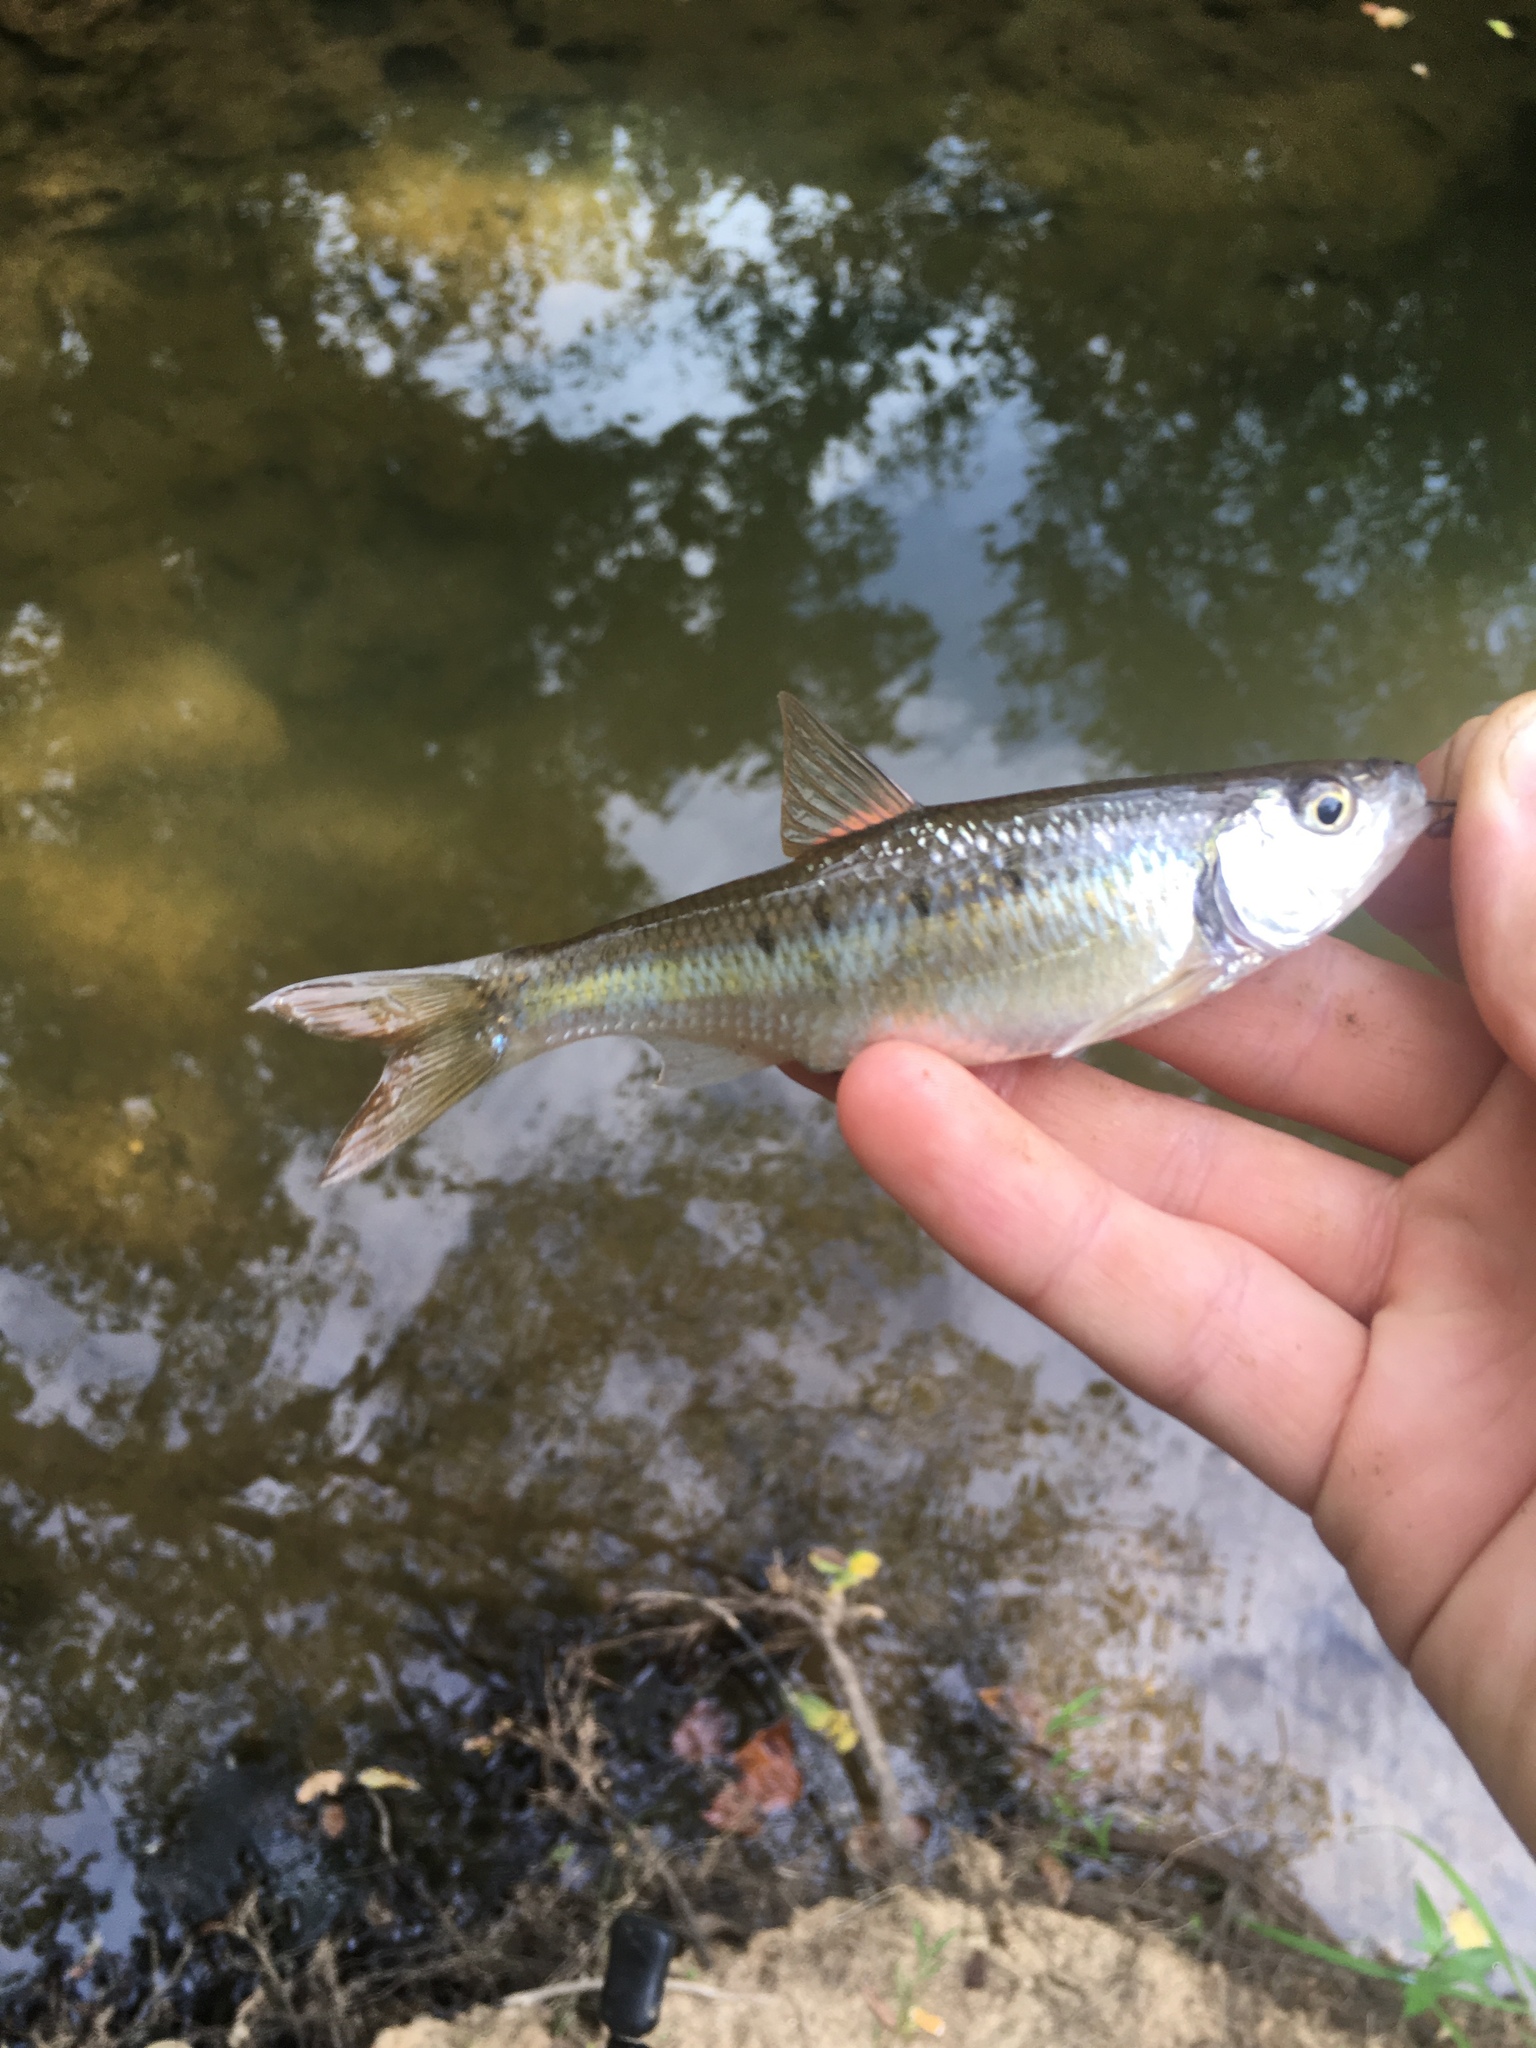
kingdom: Animalia
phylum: Chordata
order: Cypriniformes
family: Cyprinidae
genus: Luxilus
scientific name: Luxilus albeolus
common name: White shiner
